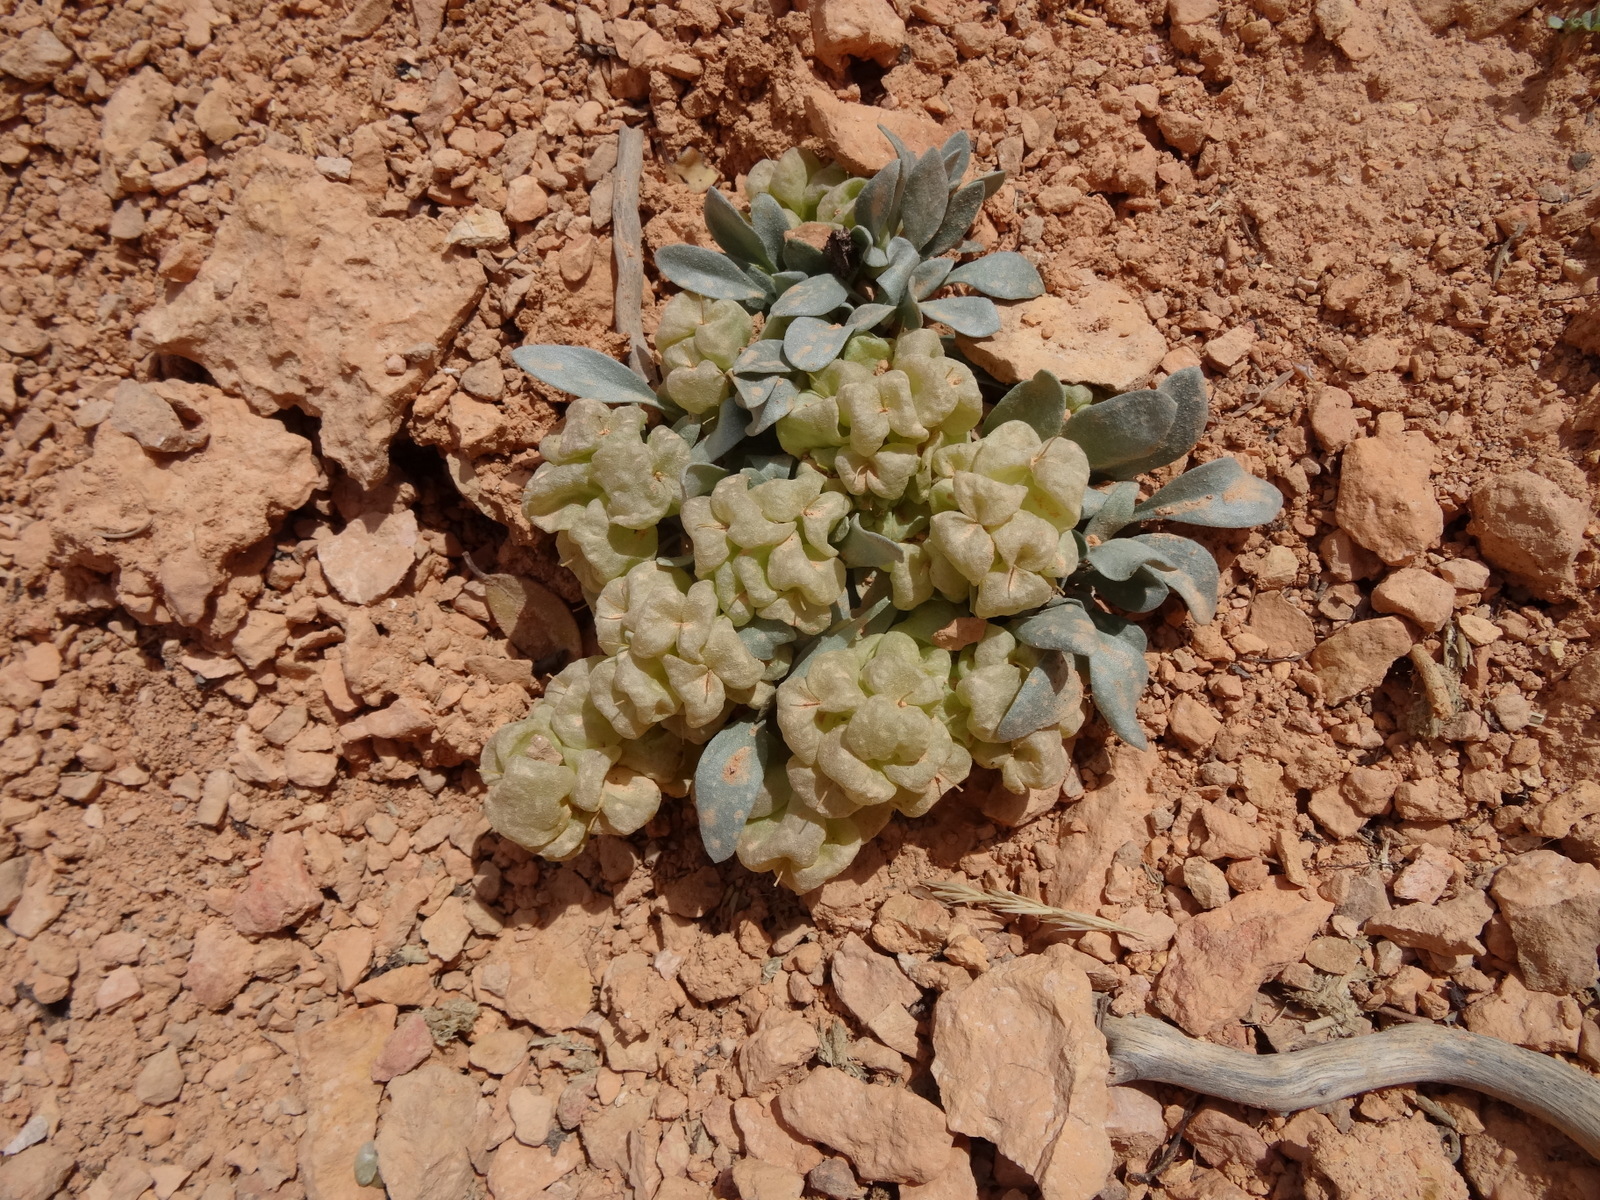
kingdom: Plantae
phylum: Tracheophyta
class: Magnoliopsida
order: Brassicales
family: Brassicaceae
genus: Physaria
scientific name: Physaria chambersii
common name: Chamber's twinpod
